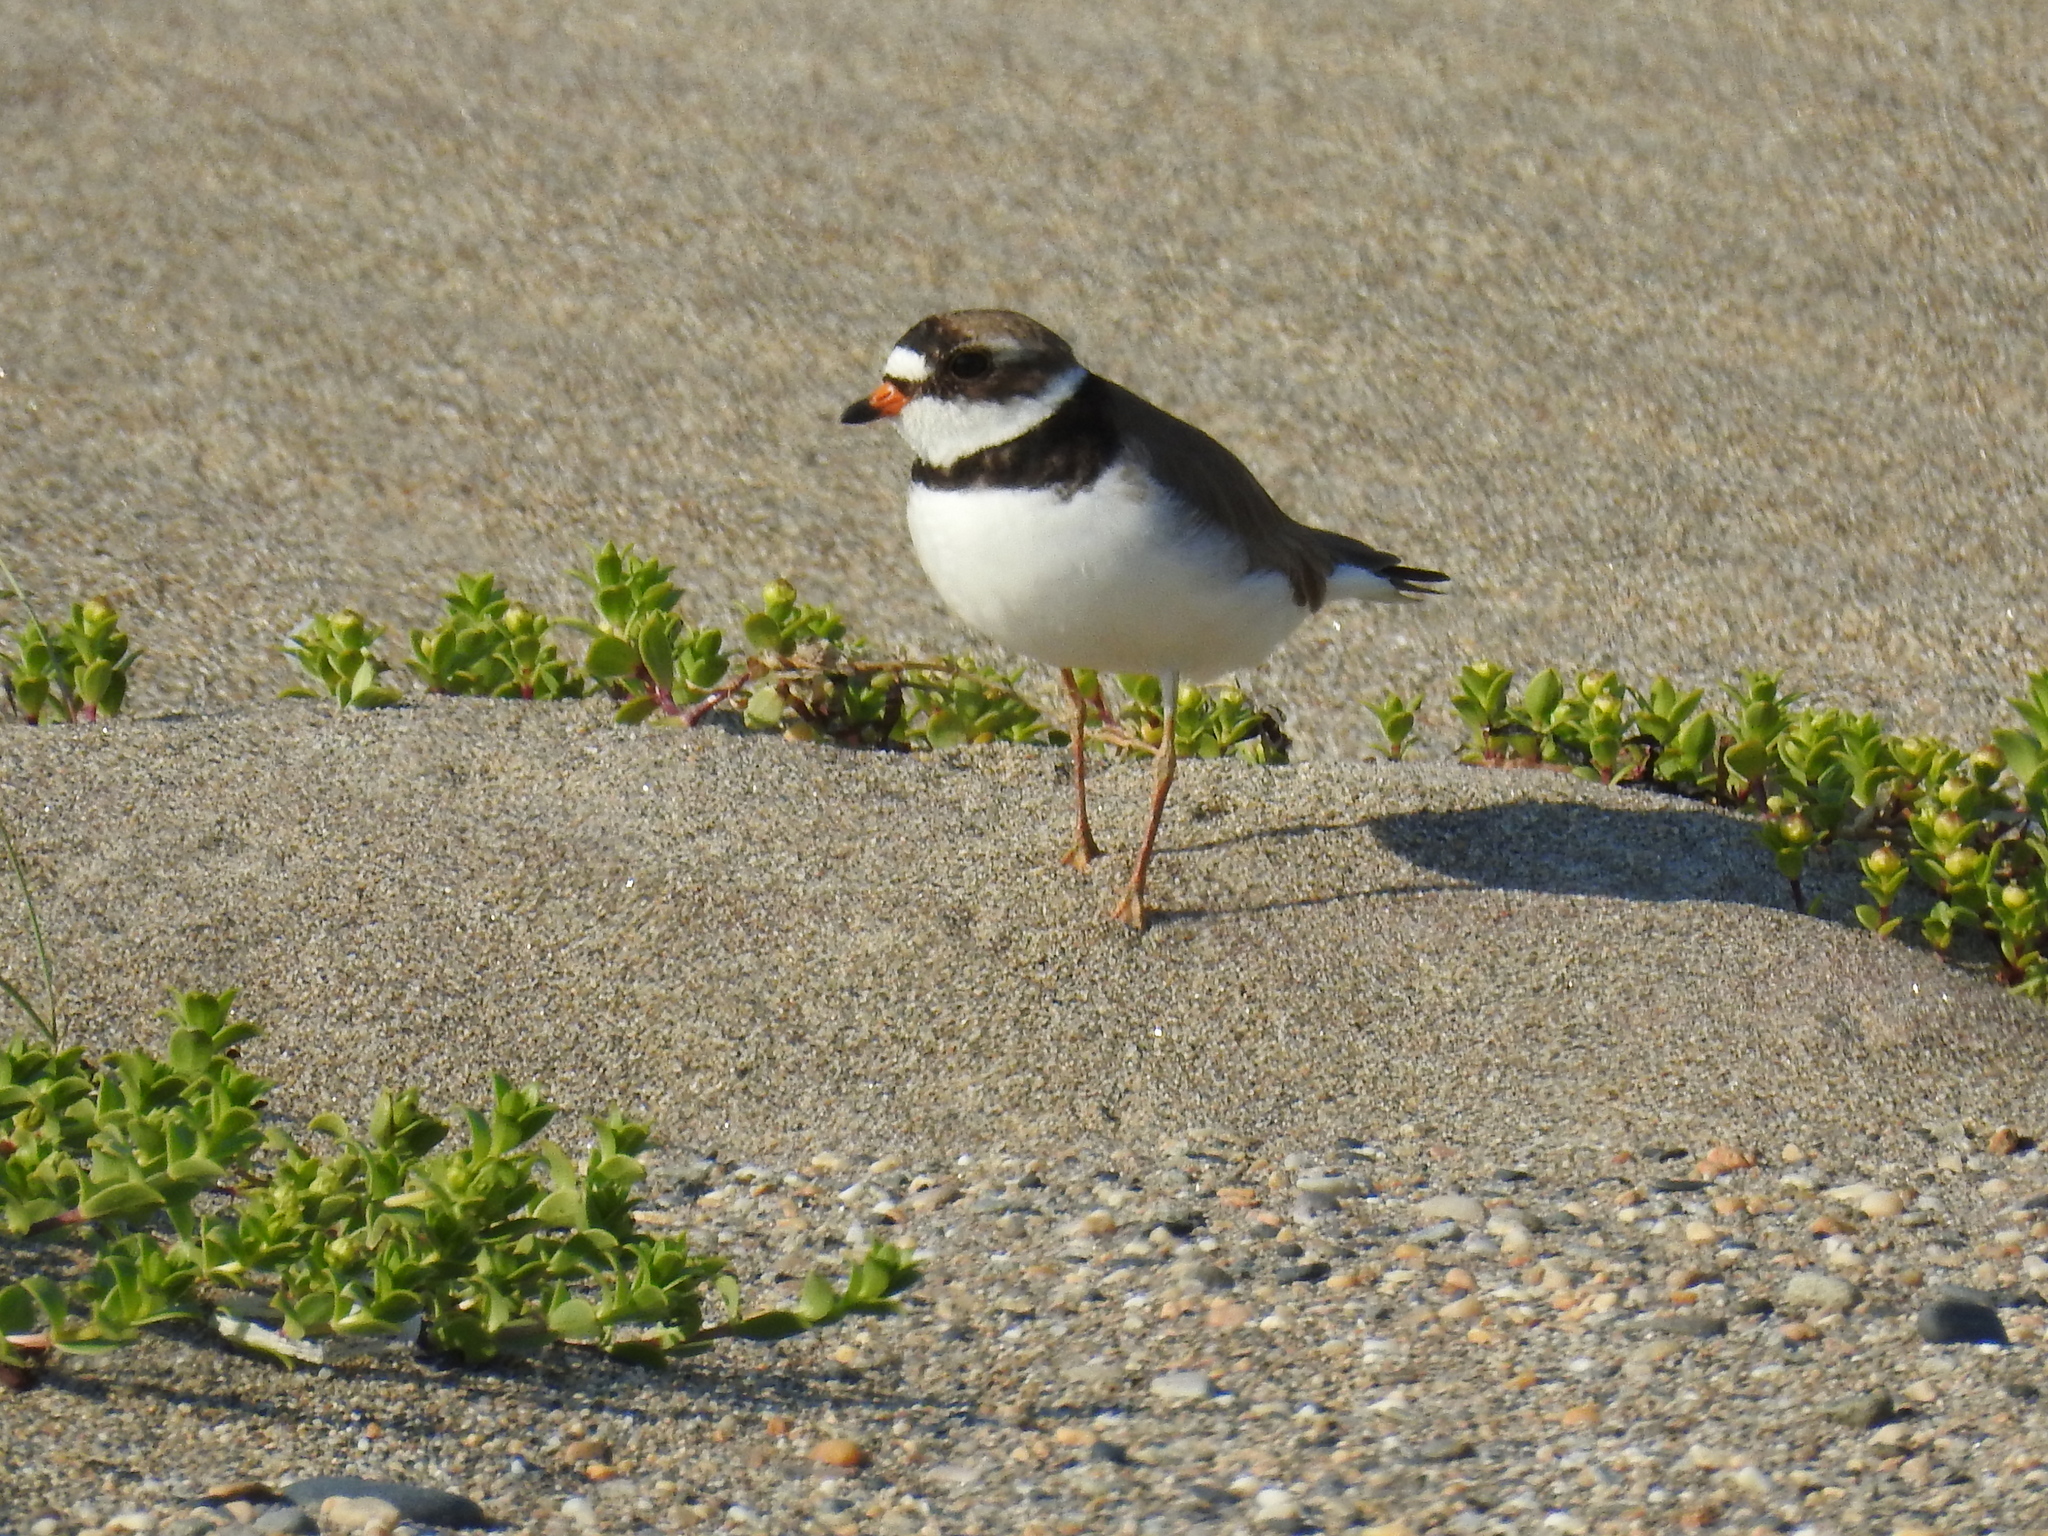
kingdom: Animalia
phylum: Chordata
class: Aves
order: Charadriiformes
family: Charadriidae
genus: Charadrius
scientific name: Charadrius semipalmatus
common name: Semipalmated plover
